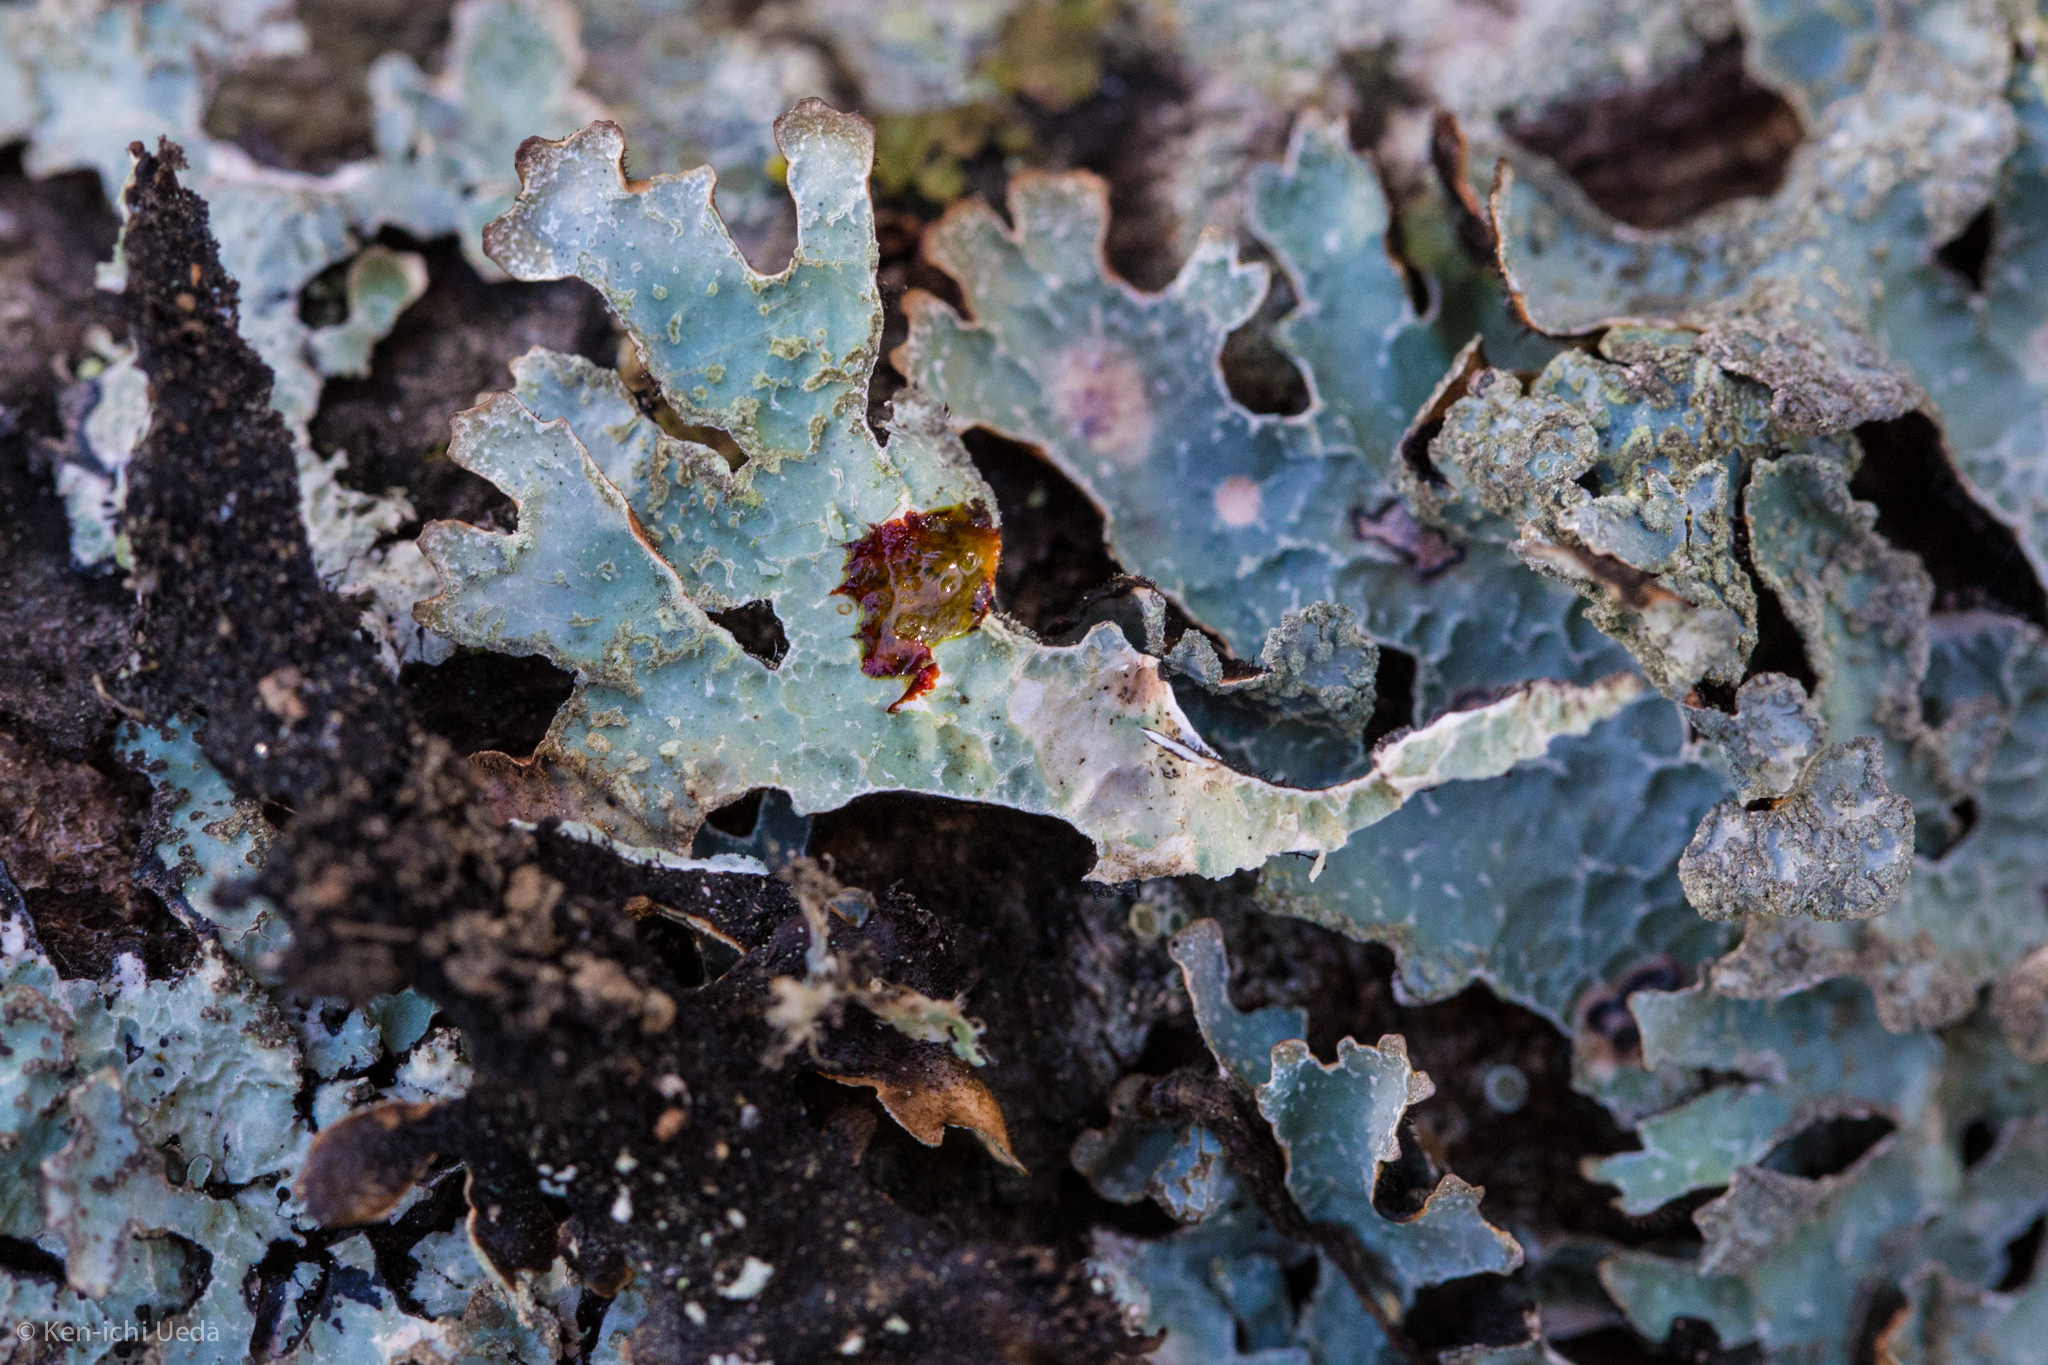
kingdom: Fungi
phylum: Ascomycota
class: Lecanoromycetes
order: Lecanorales
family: Parmeliaceae
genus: Parmelia
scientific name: Parmelia hygrophila
